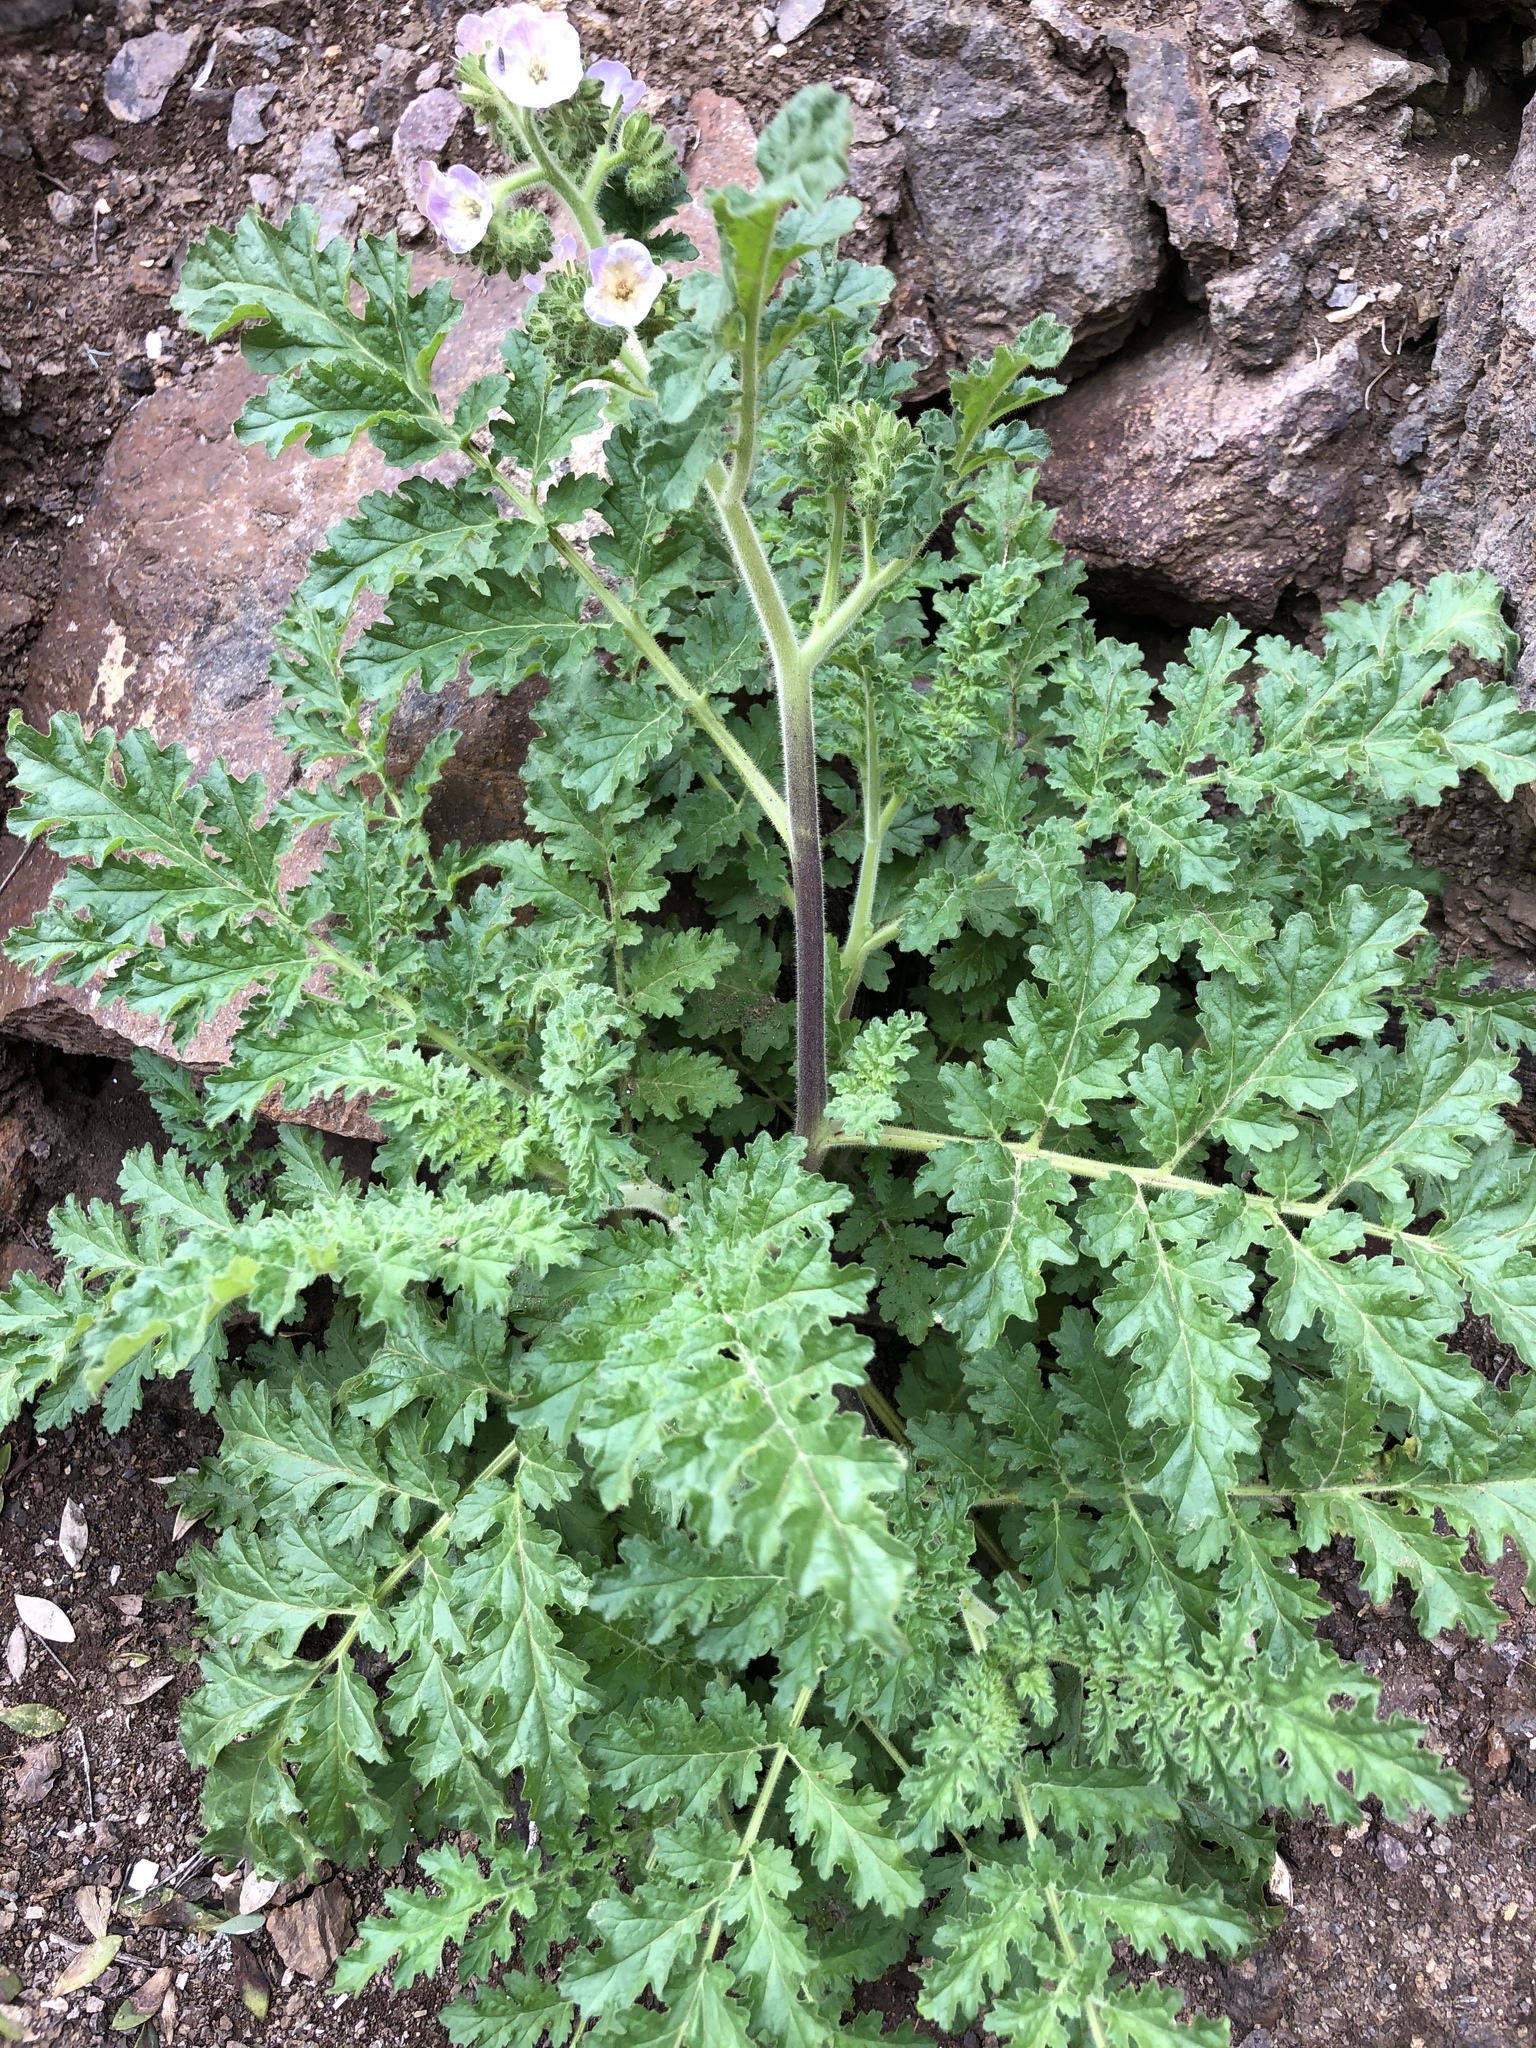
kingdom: Plantae
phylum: Tracheophyta
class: Magnoliopsida
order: Boraginales
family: Hydrophyllaceae
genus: Phacelia
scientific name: Phacelia ixodes
